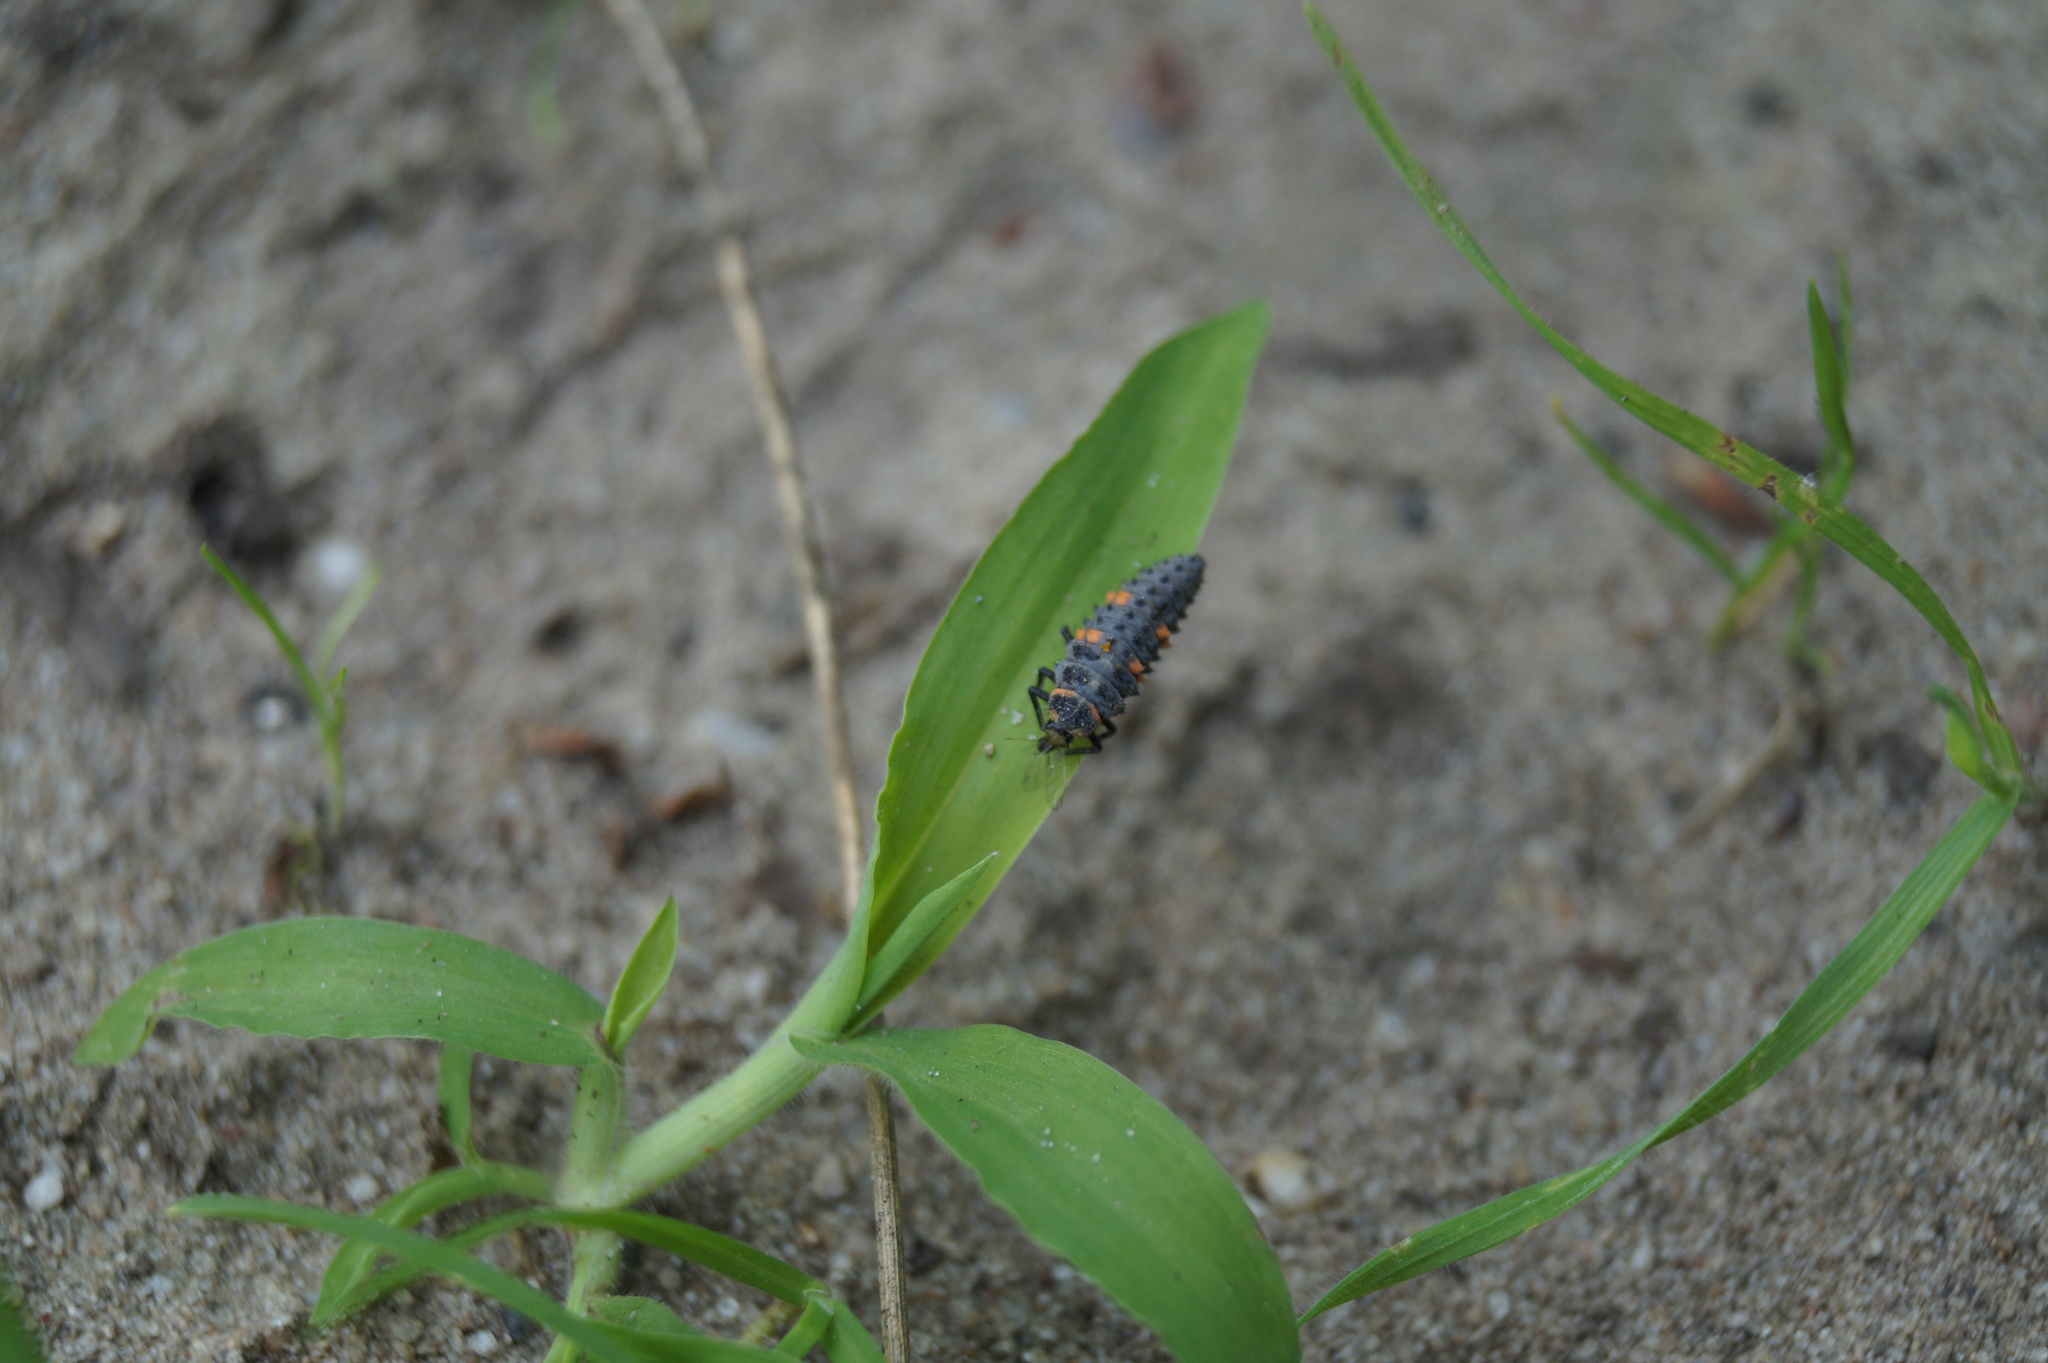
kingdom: Animalia
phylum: Arthropoda
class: Insecta
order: Coleoptera
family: Coccinellidae
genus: Coccinella
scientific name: Coccinella septempunctata
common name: Sevenspotted lady beetle
